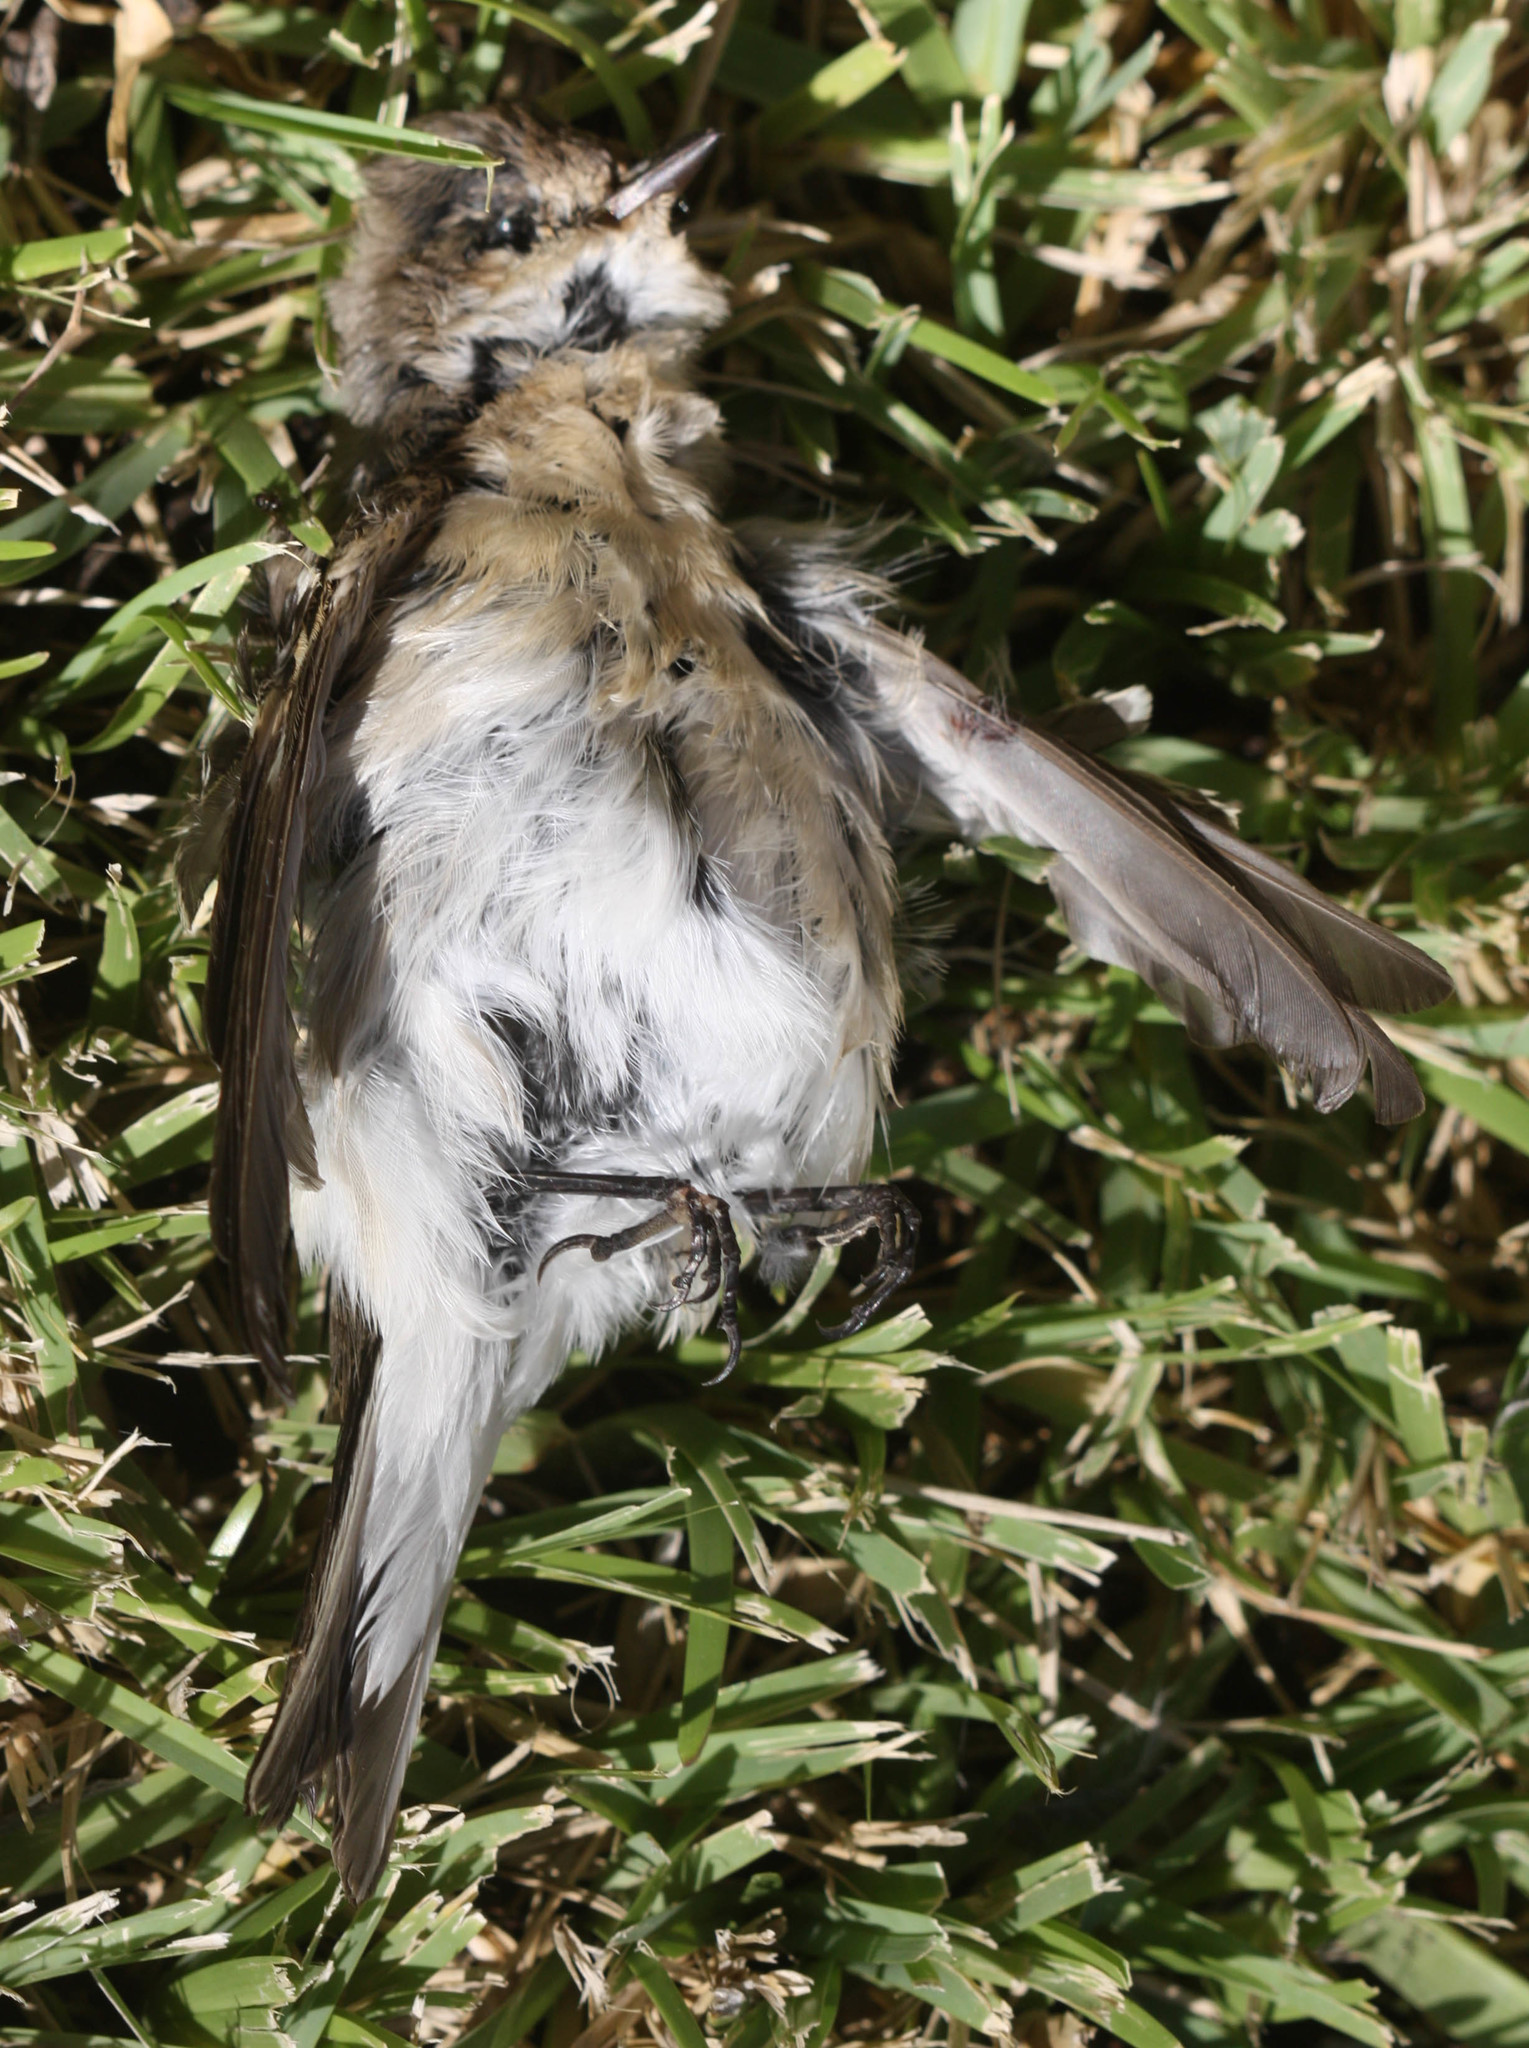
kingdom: Animalia
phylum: Chordata
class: Aves
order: Passeriformes
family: Muscicapidae
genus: Ficedula
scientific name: Ficedula hypoleuca
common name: European pied flycatcher
